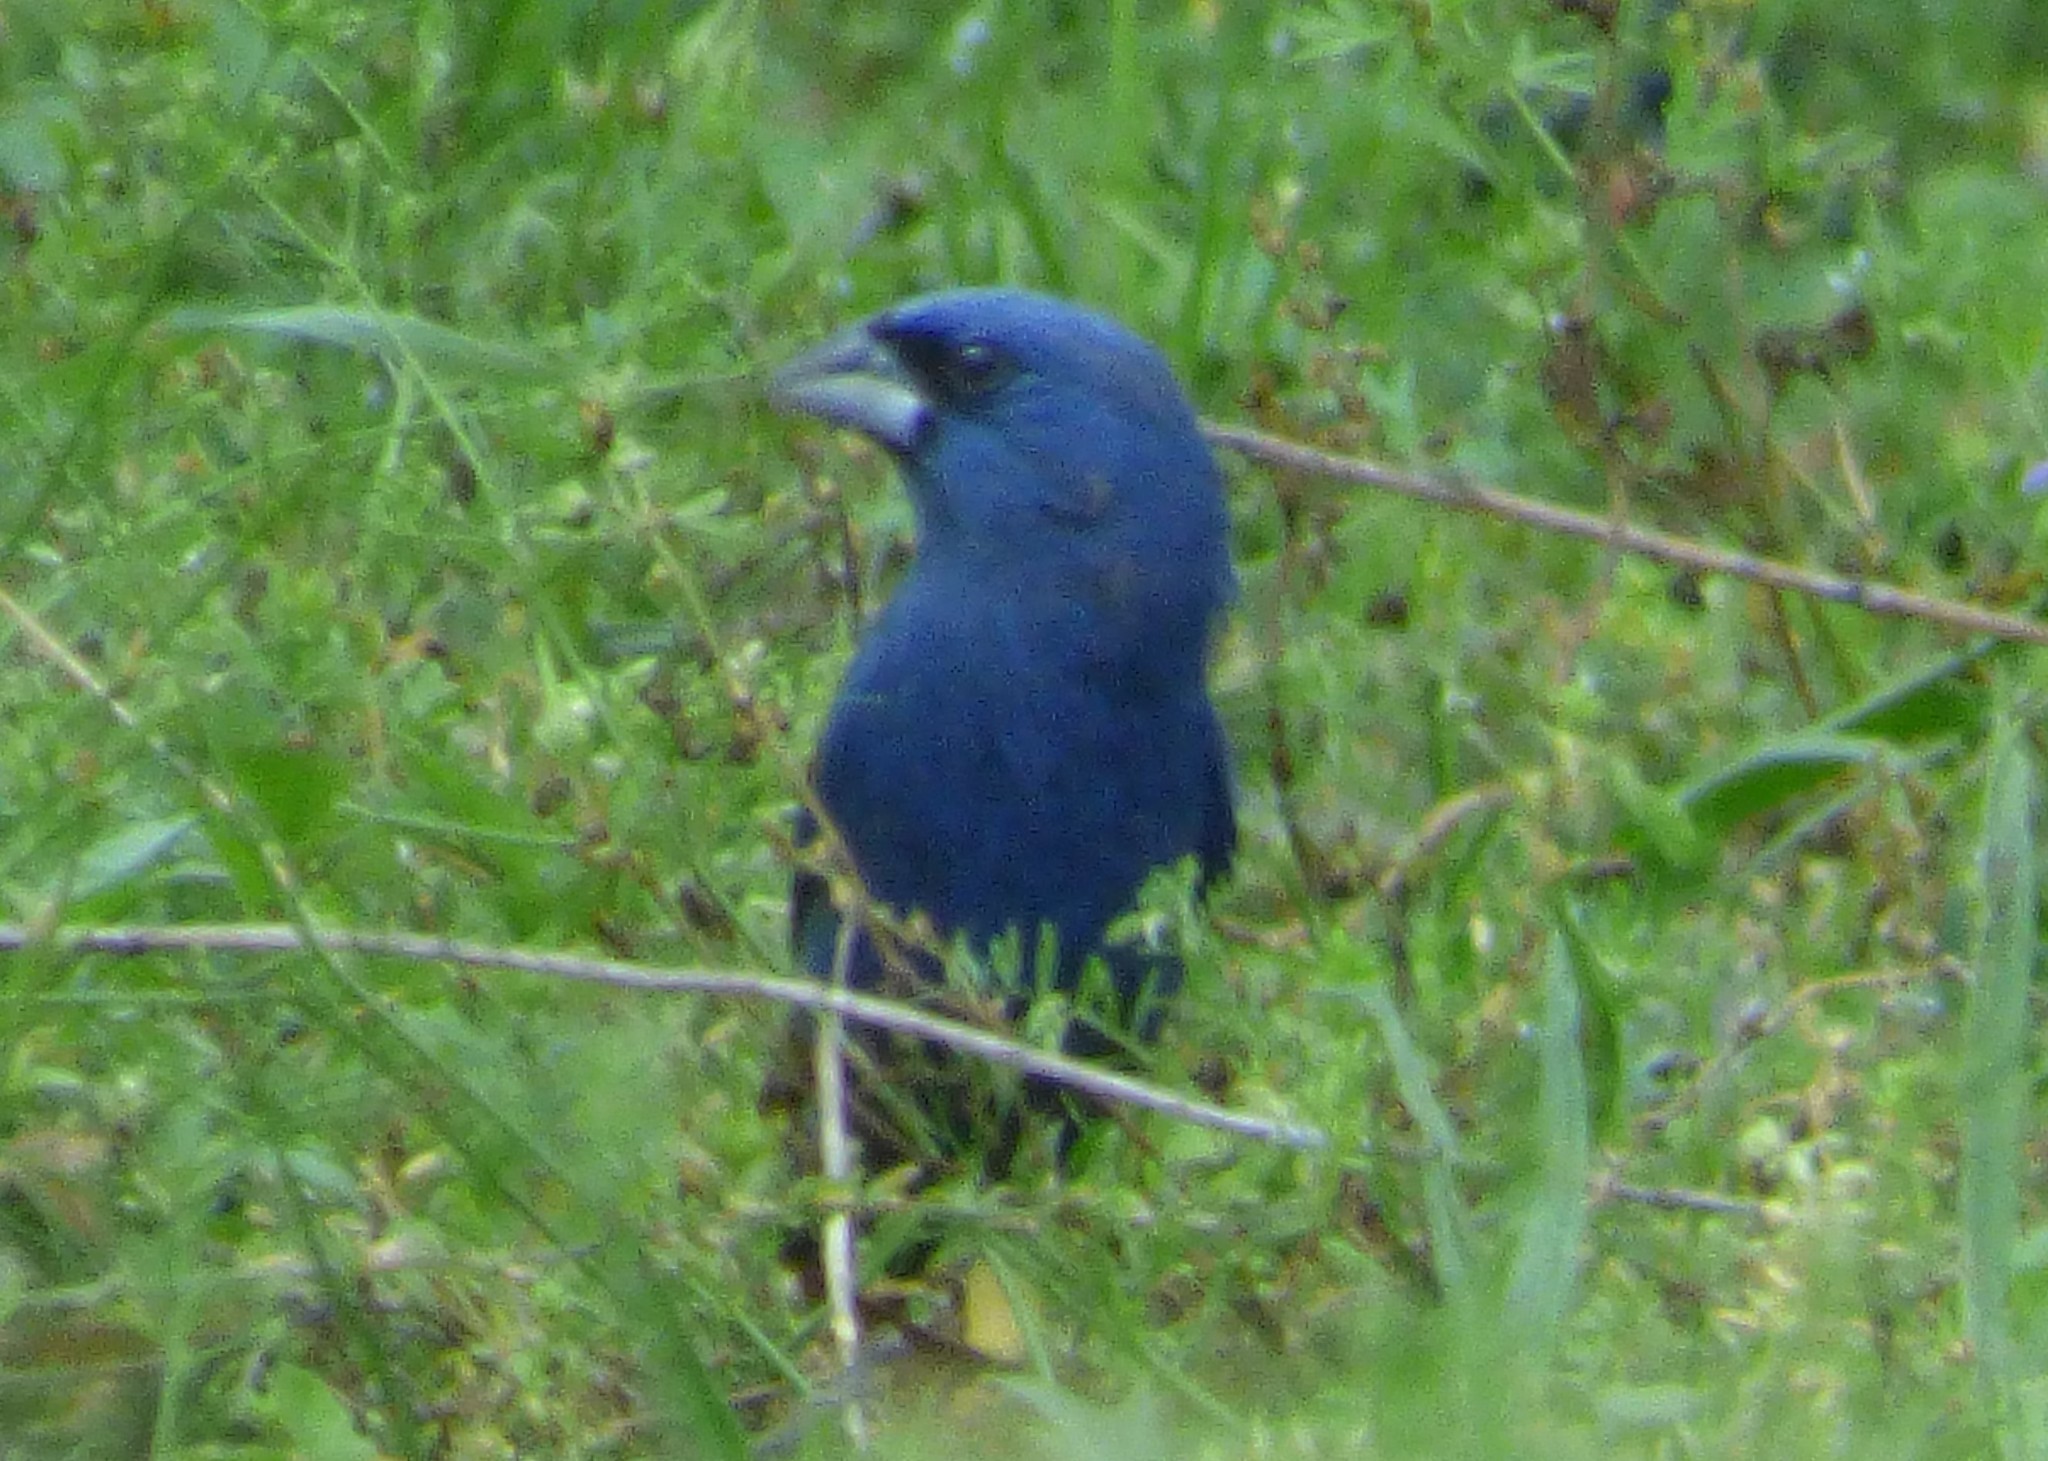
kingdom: Animalia
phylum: Chordata
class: Aves
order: Passeriformes
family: Cardinalidae
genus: Passerina
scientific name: Passerina caerulea
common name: Blue grosbeak
